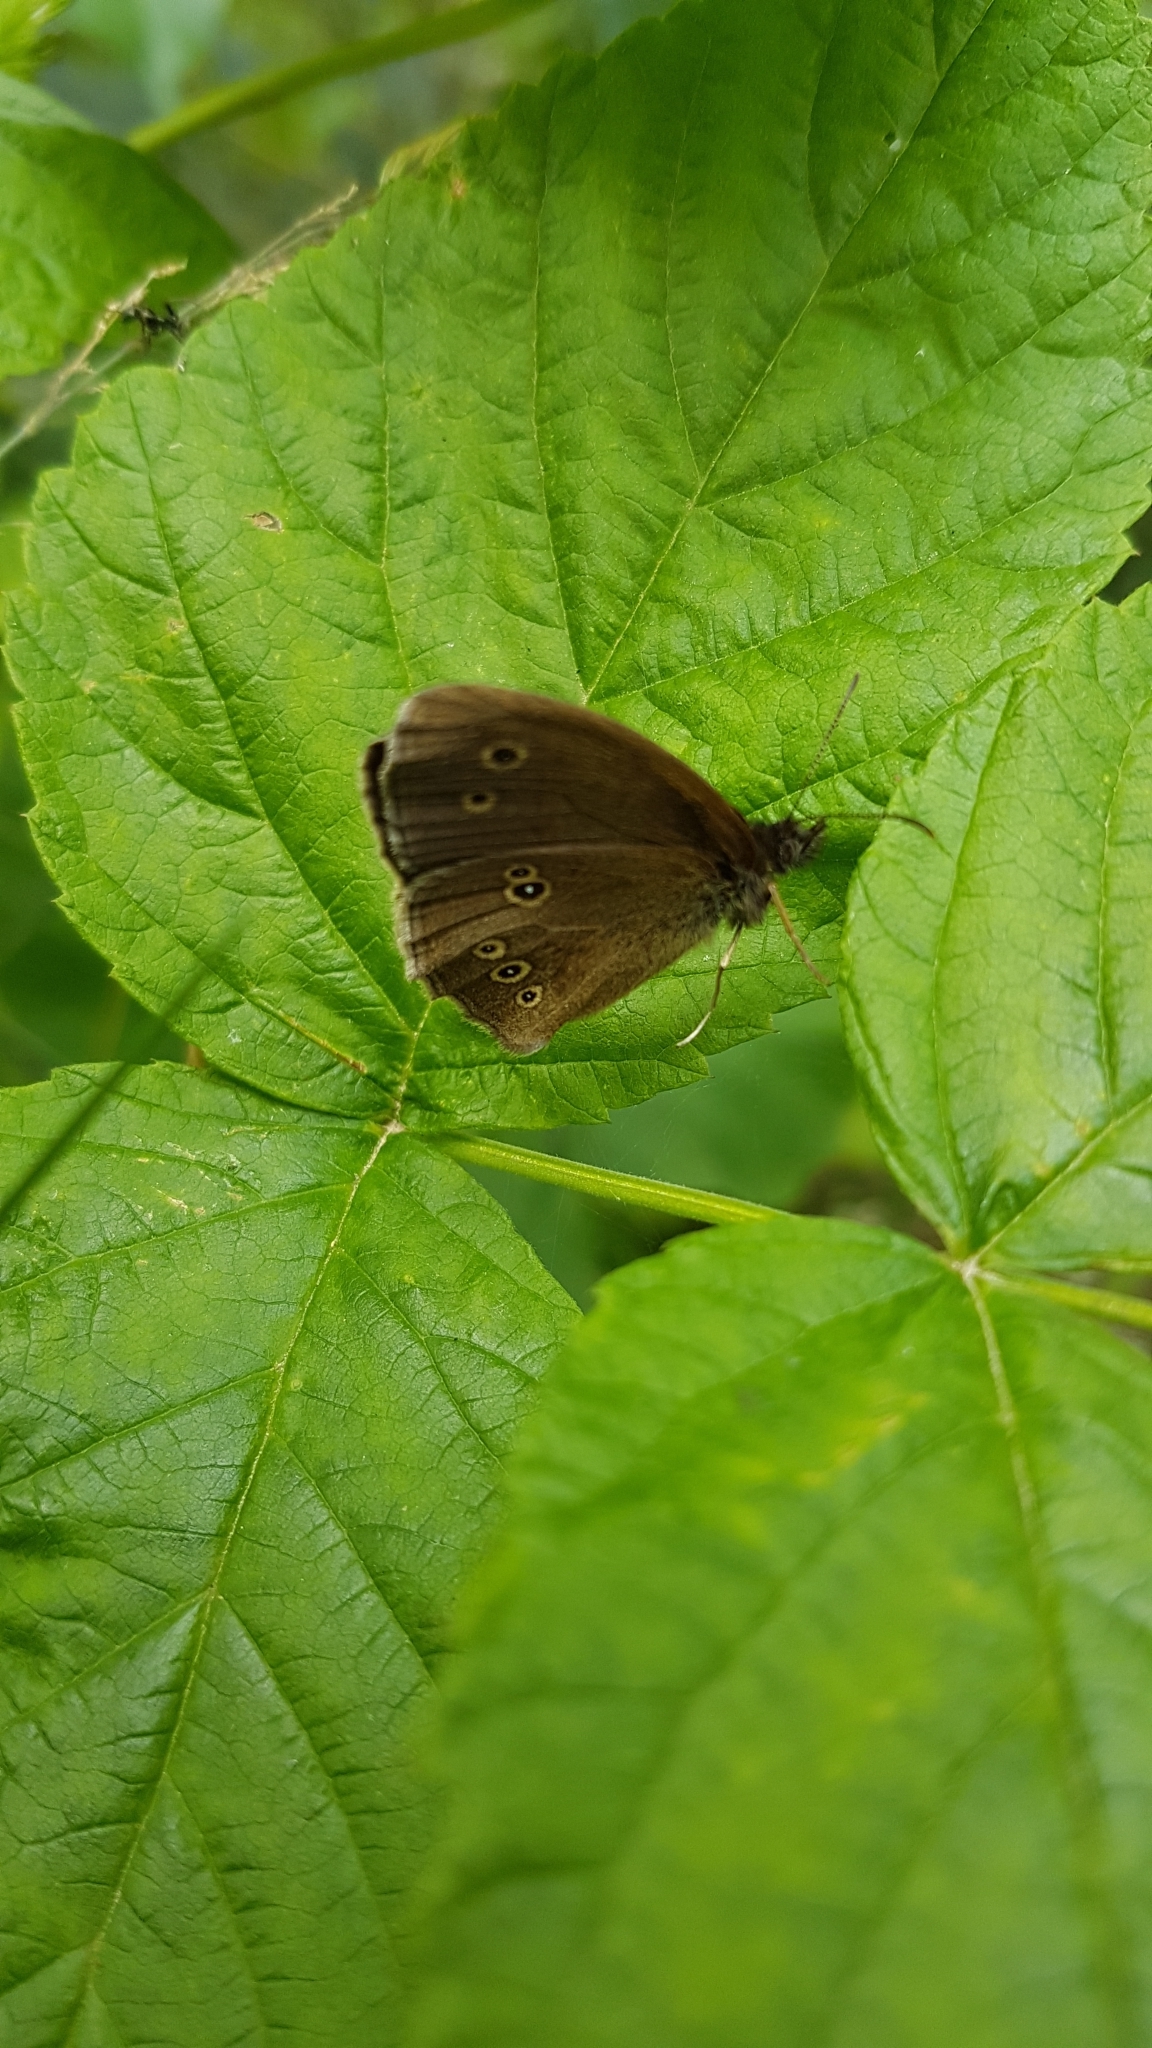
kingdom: Animalia
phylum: Arthropoda
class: Insecta
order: Lepidoptera
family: Nymphalidae
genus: Aphantopus
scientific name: Aphantopus hyperantus
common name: Ringlet
